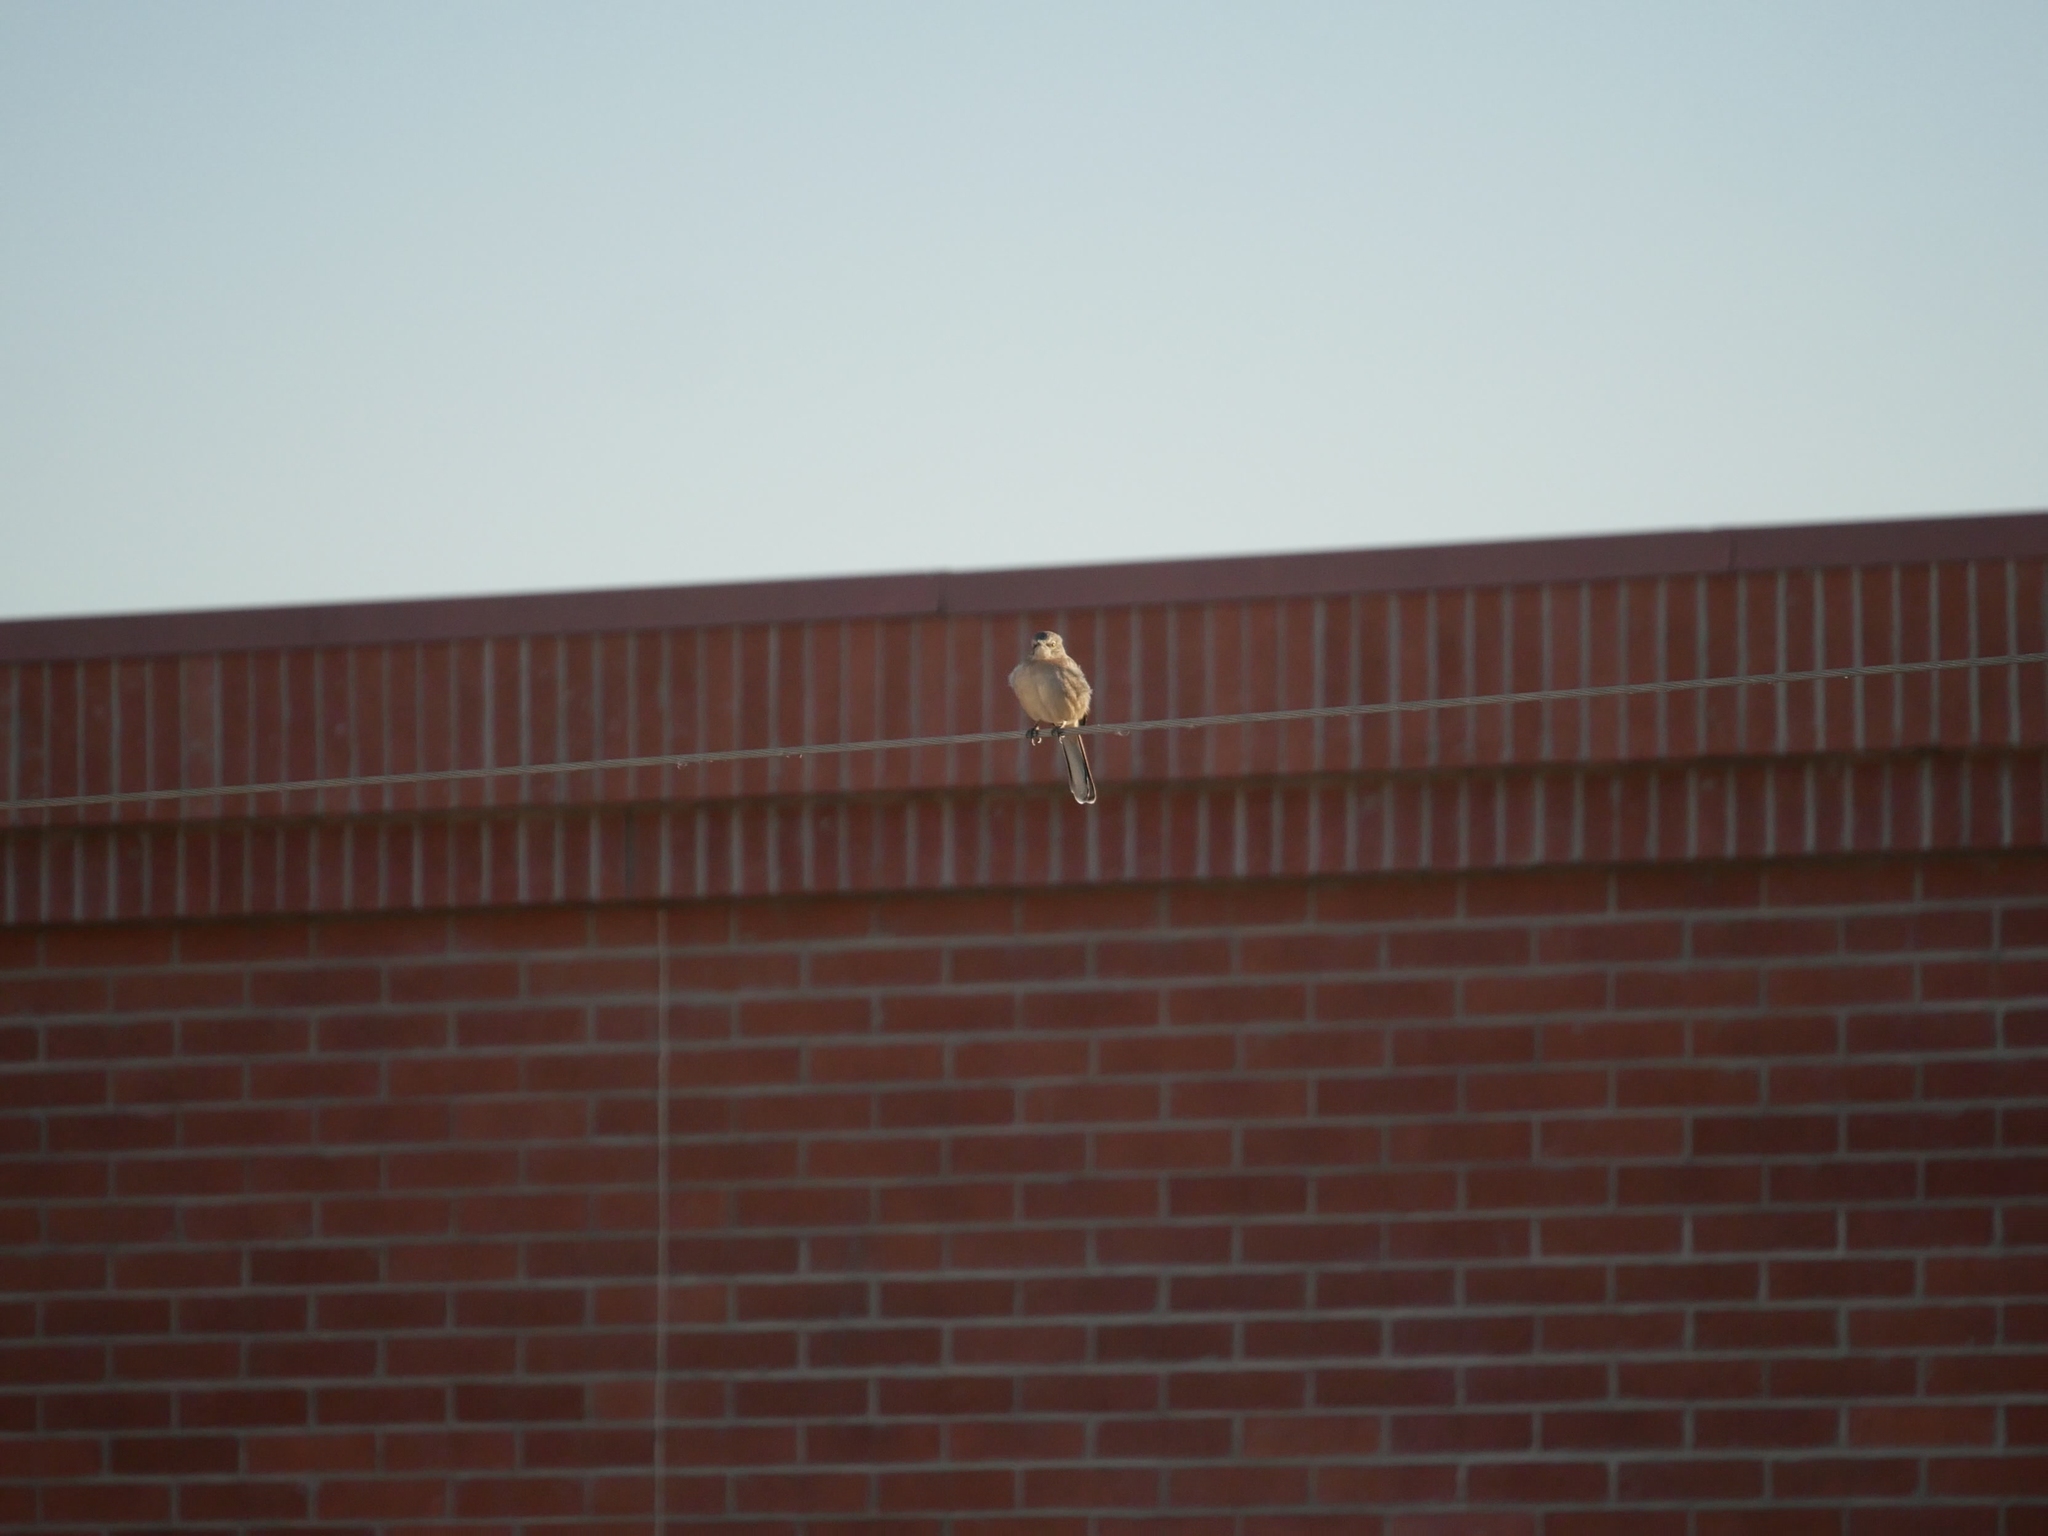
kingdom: Animalia
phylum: Chordata
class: Aves
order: Passeriformes
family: Mimidae
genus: Mimus
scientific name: Mimus polyglottos
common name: Northern mockingbird
